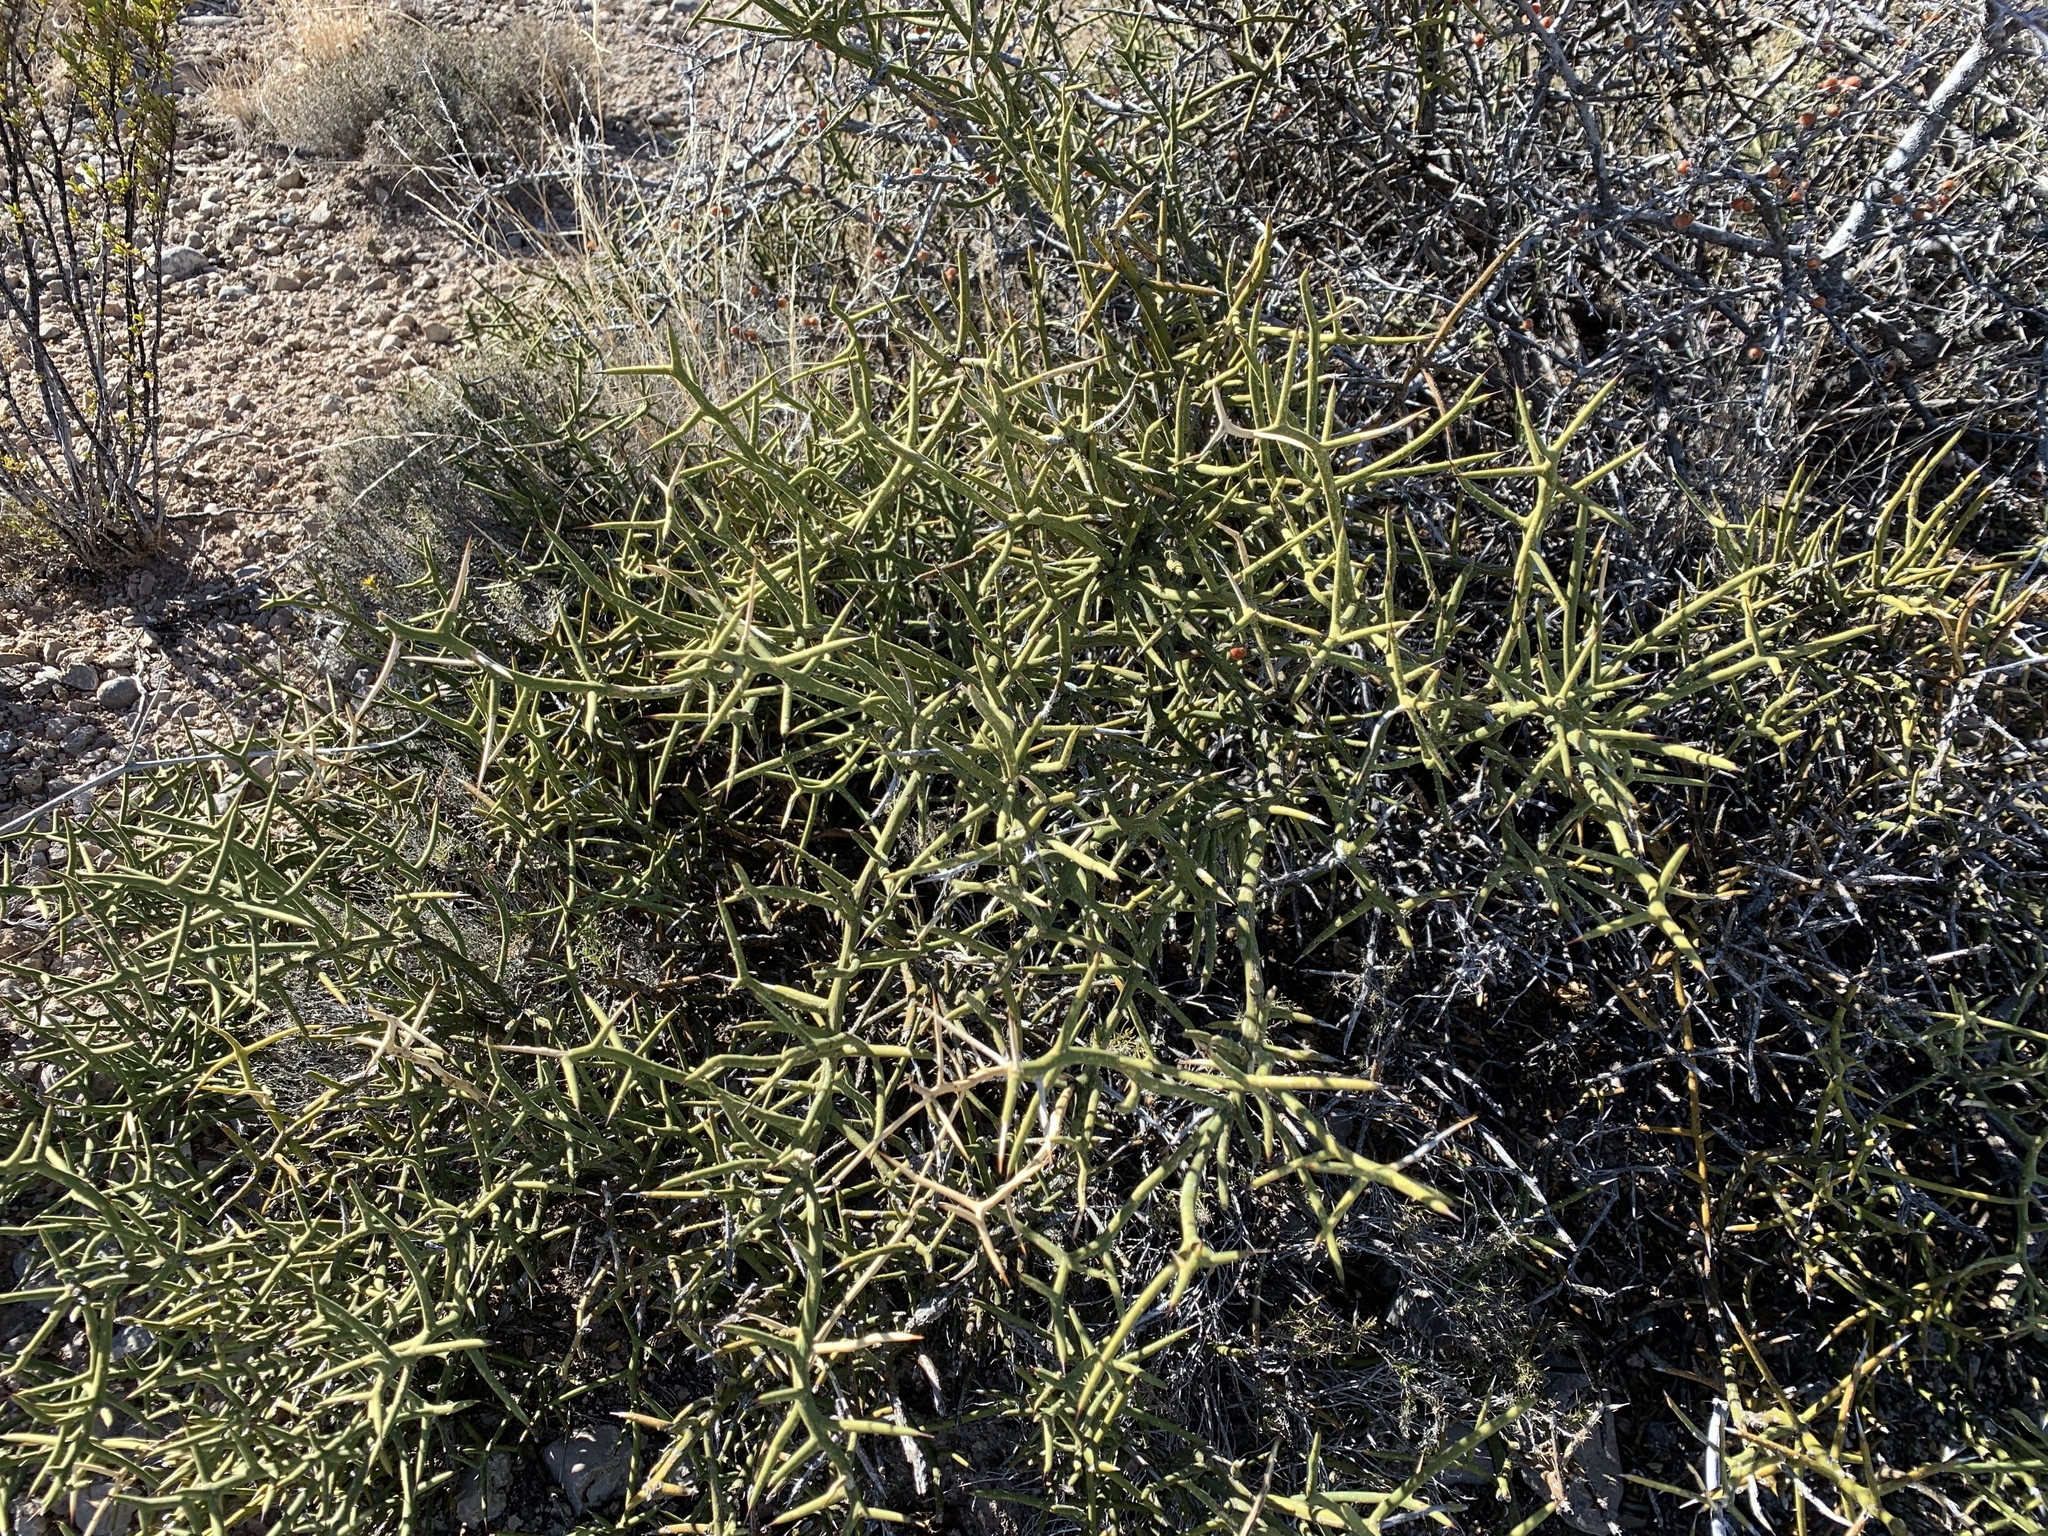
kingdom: Plantae
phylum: Tracheophyta
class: Magnoliopsida
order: Brassicales
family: Koeberliniaceae
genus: Koeberlinia
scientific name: Koeberlinia spinosa
